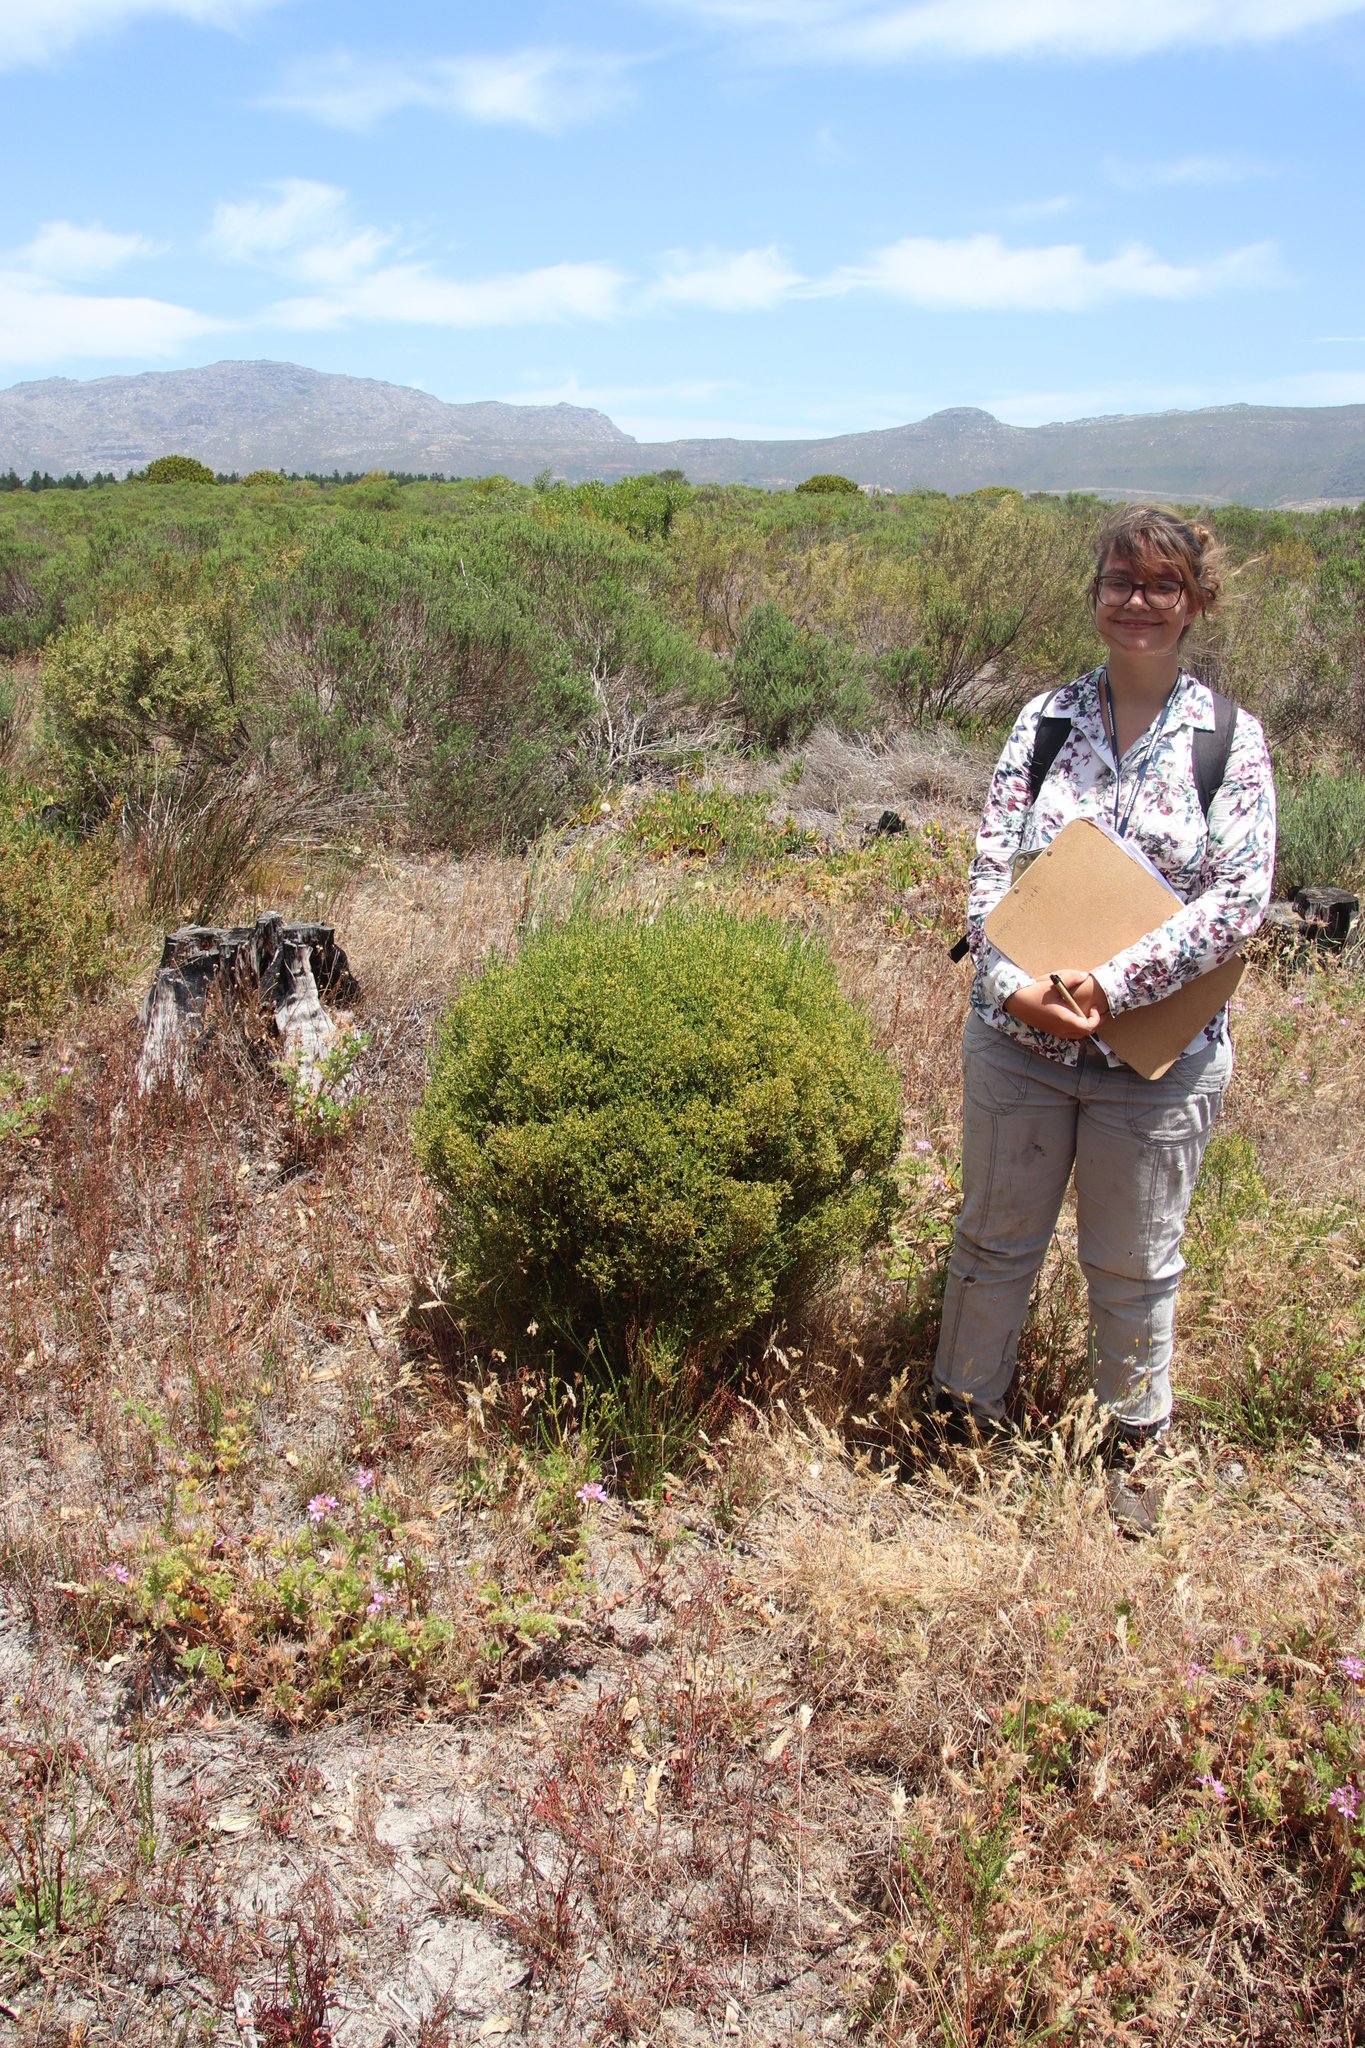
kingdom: Plantae
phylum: Tracheophyta
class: Magnoliopsida
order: Sapindales
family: Rutaceae
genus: Agathosma
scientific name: Agathosma glabrata
